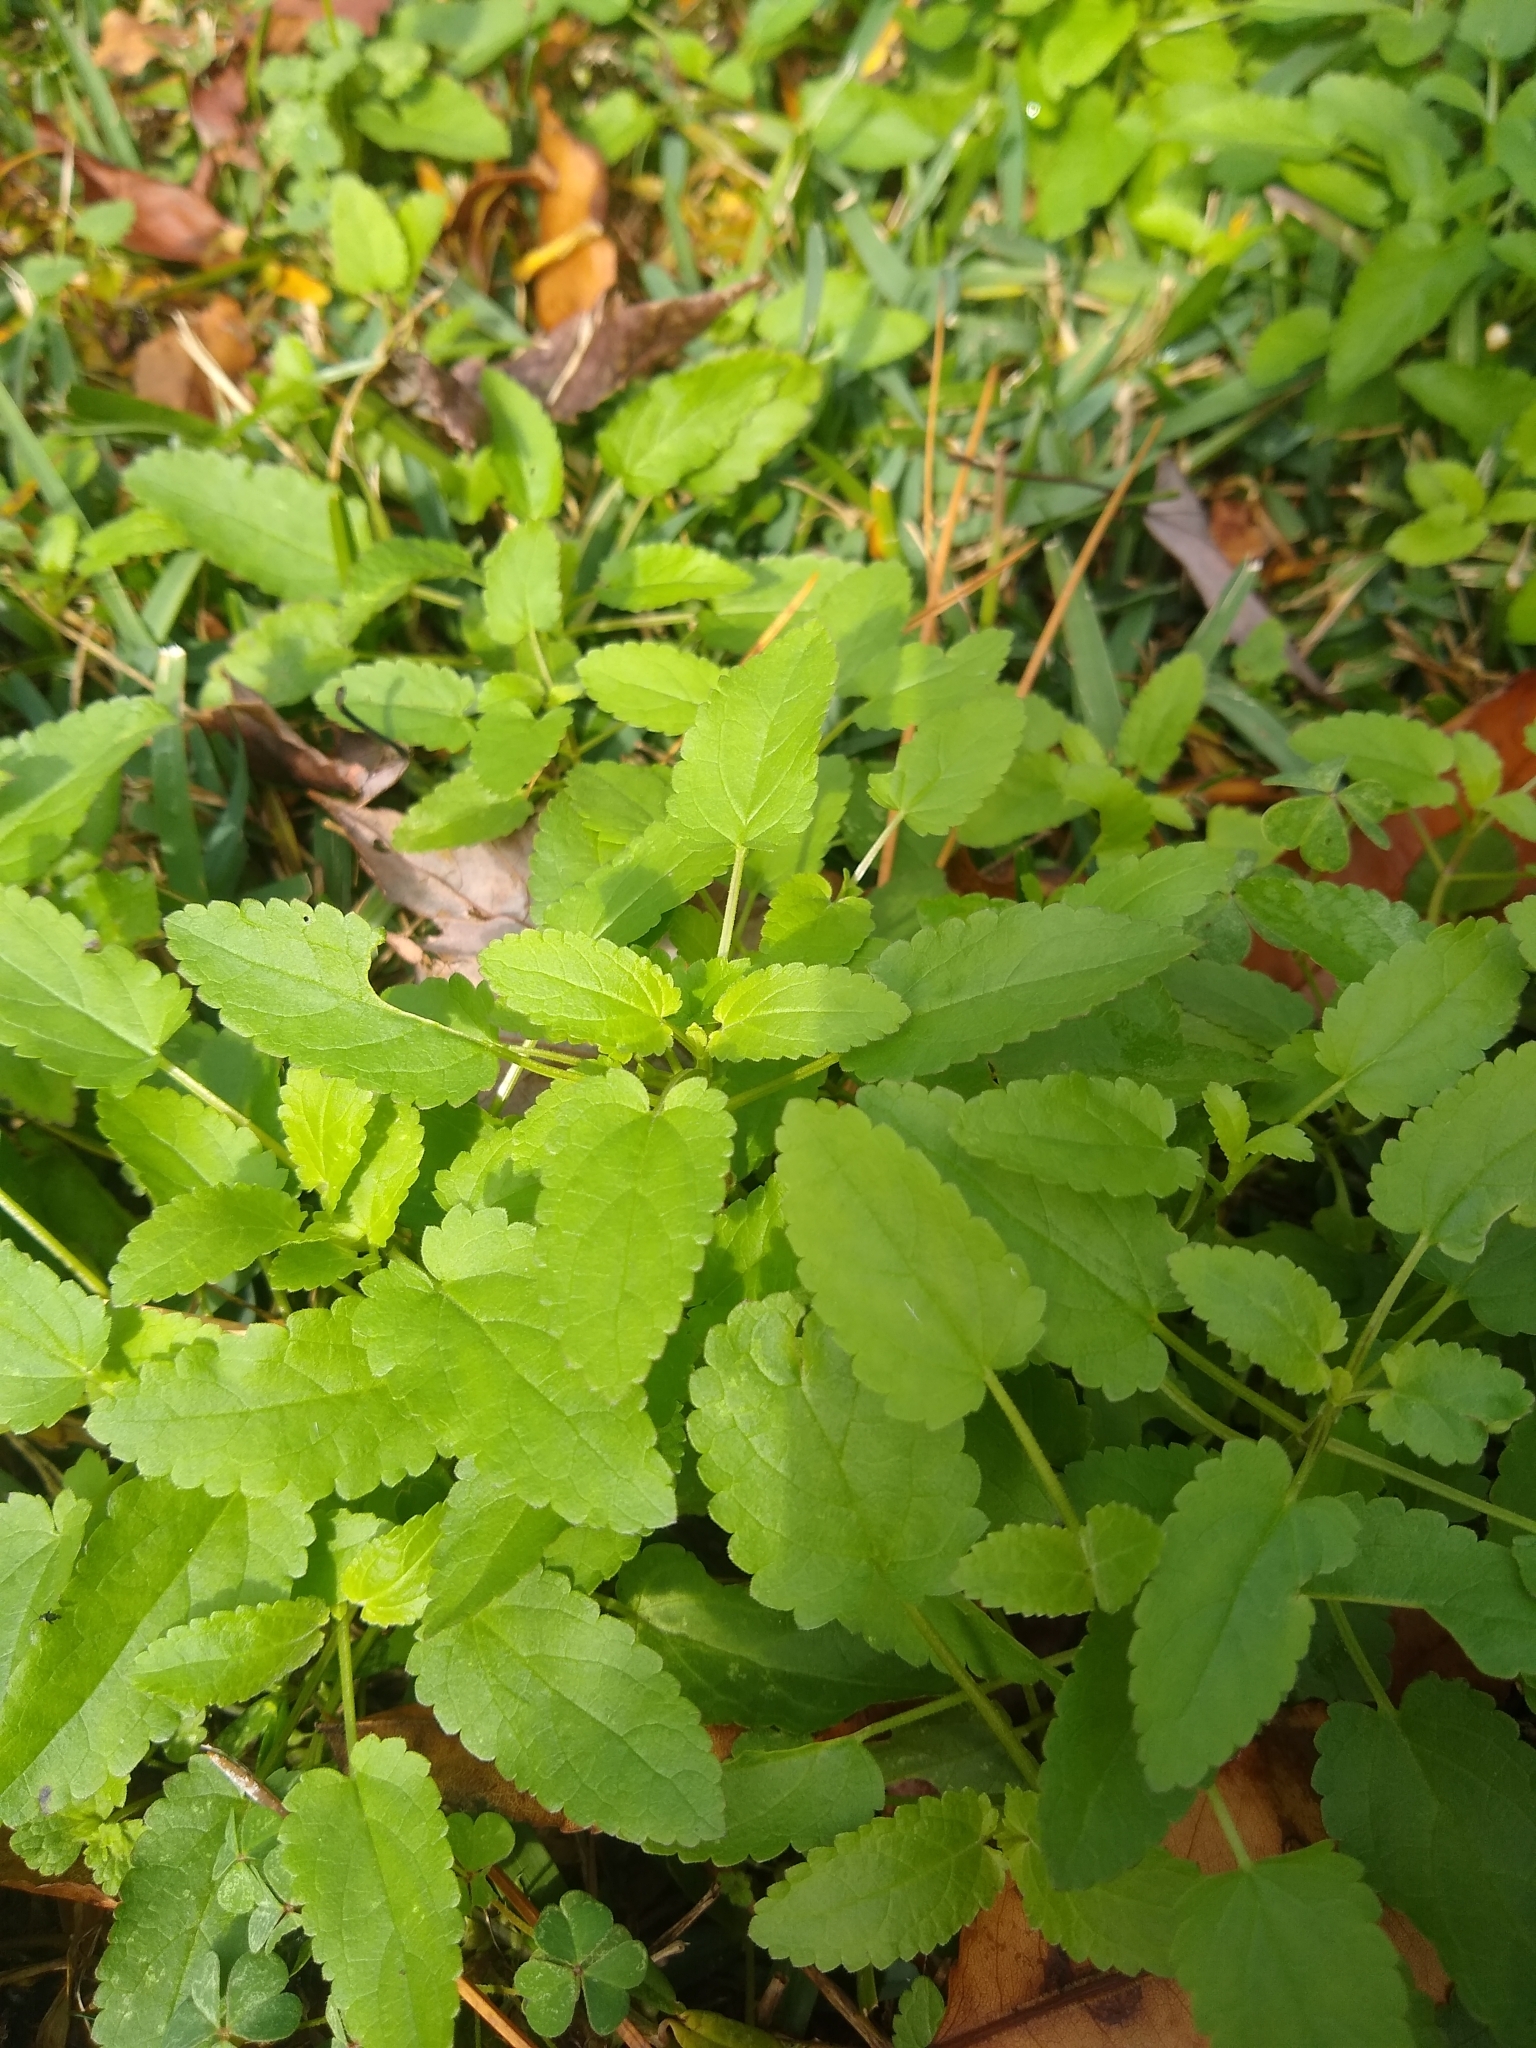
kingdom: Plantae
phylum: Tracheophyta
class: Magnoliopsida
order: Lamiales
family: Lamiaceae
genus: Stachys
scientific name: Stachys floridana
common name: Florida betony
